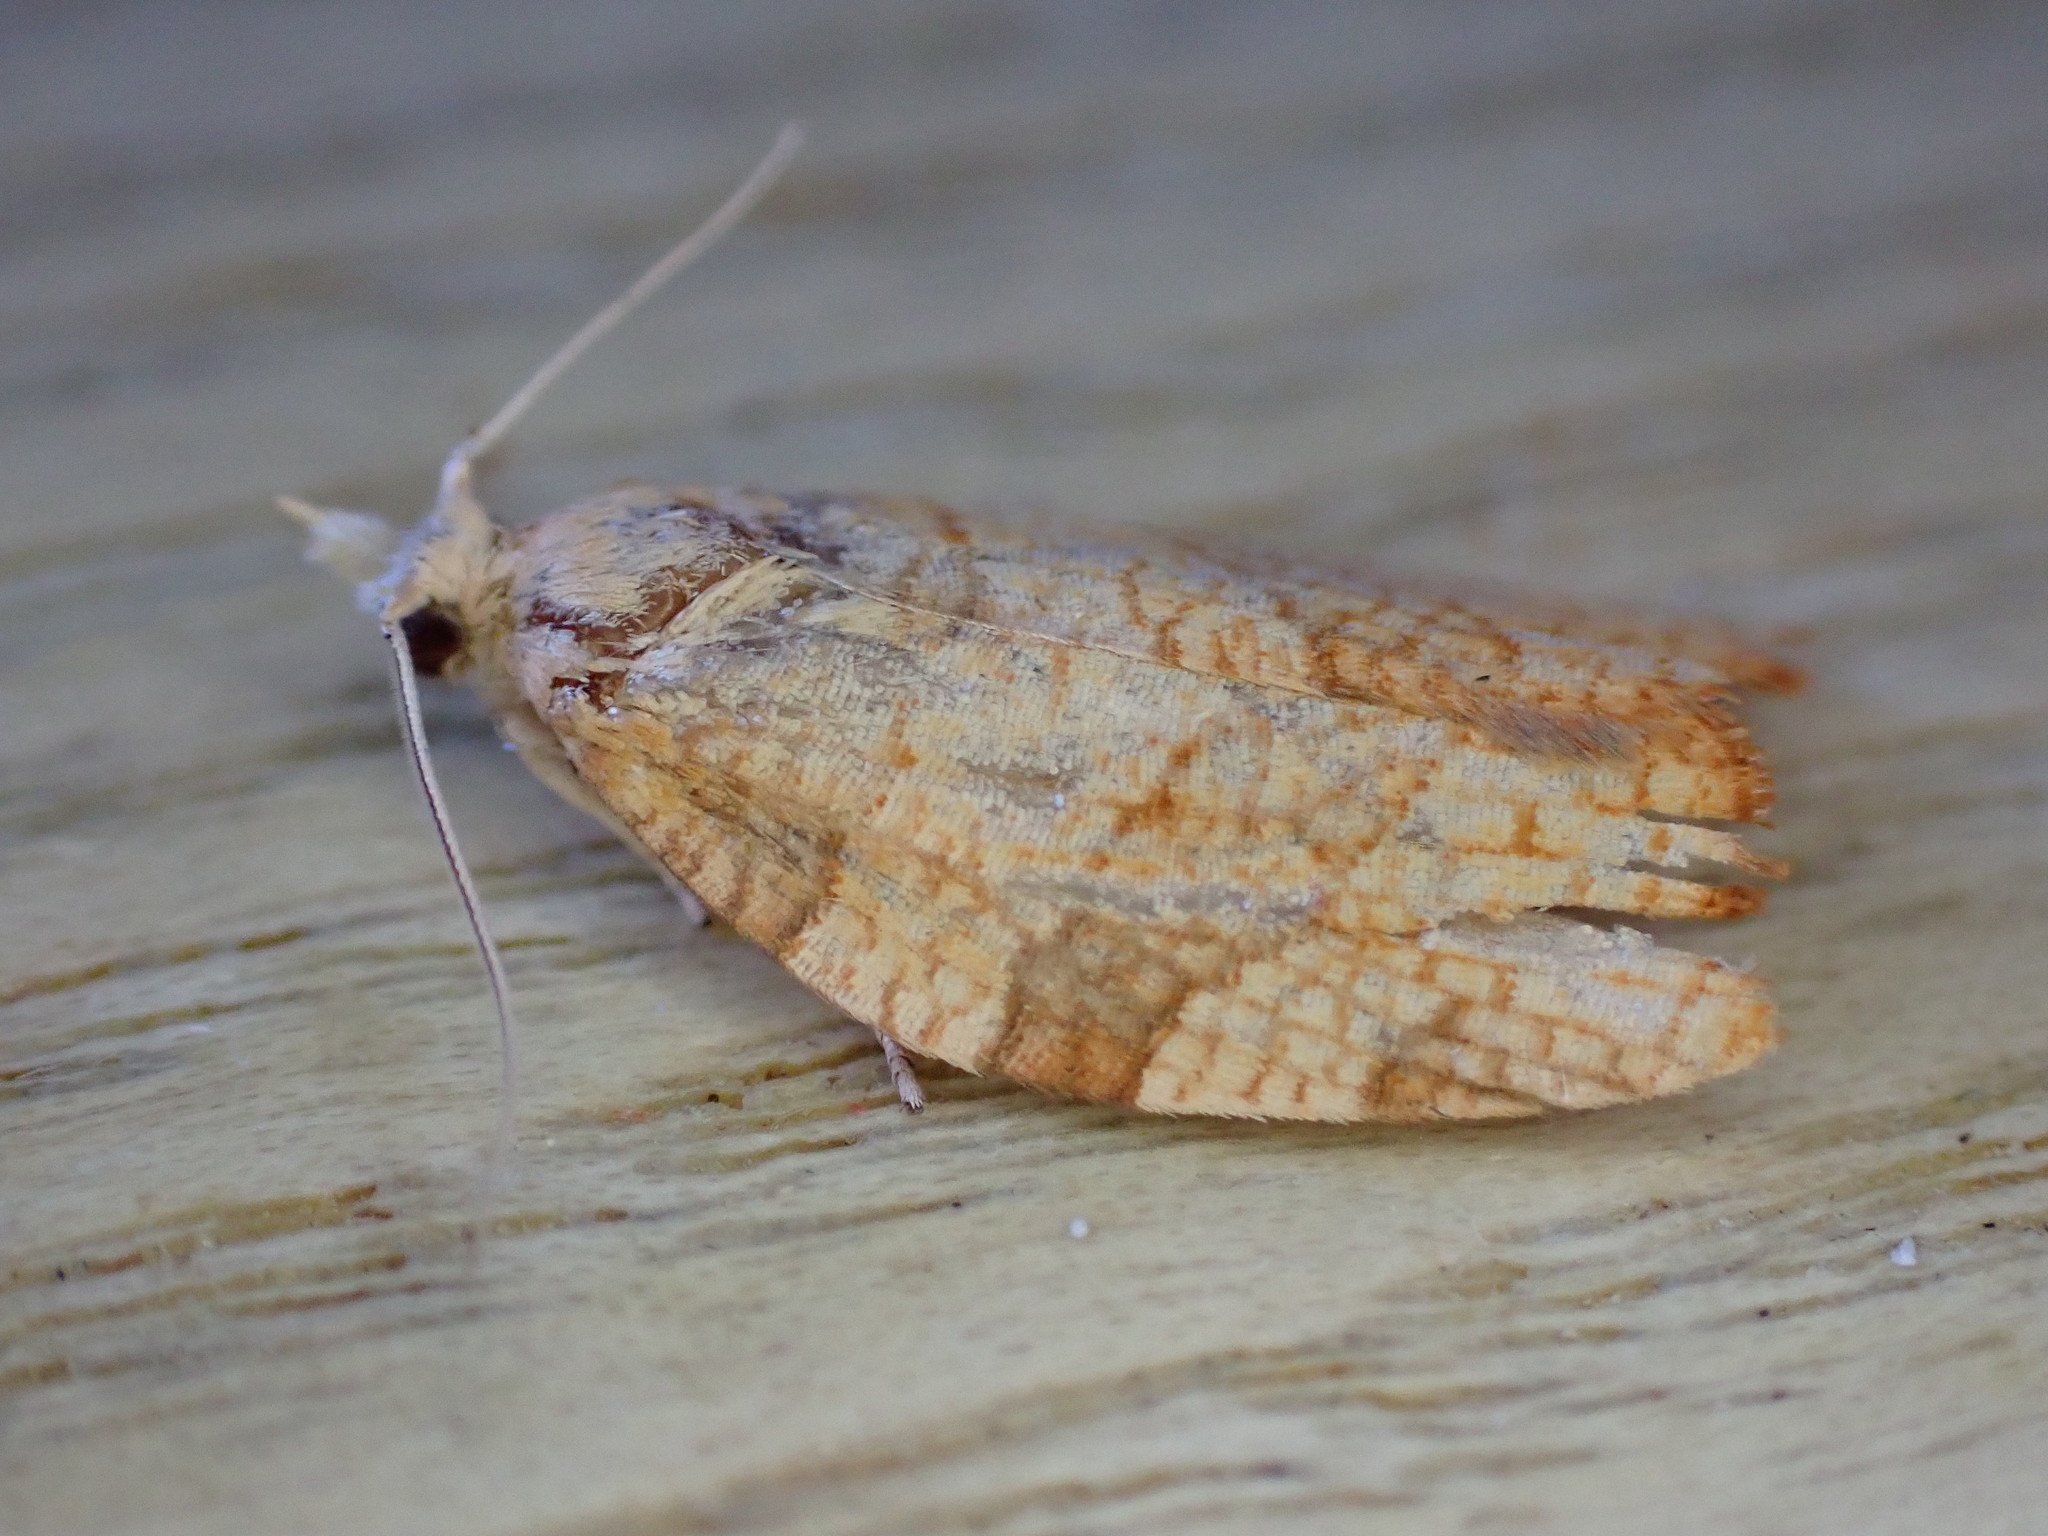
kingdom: Animalia
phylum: Arthropoda
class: Insecta
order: Lepidoptera
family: Tortricidae
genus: Pandemis
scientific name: Pandemis corylana
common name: Chequered fruit-tree tortrix
